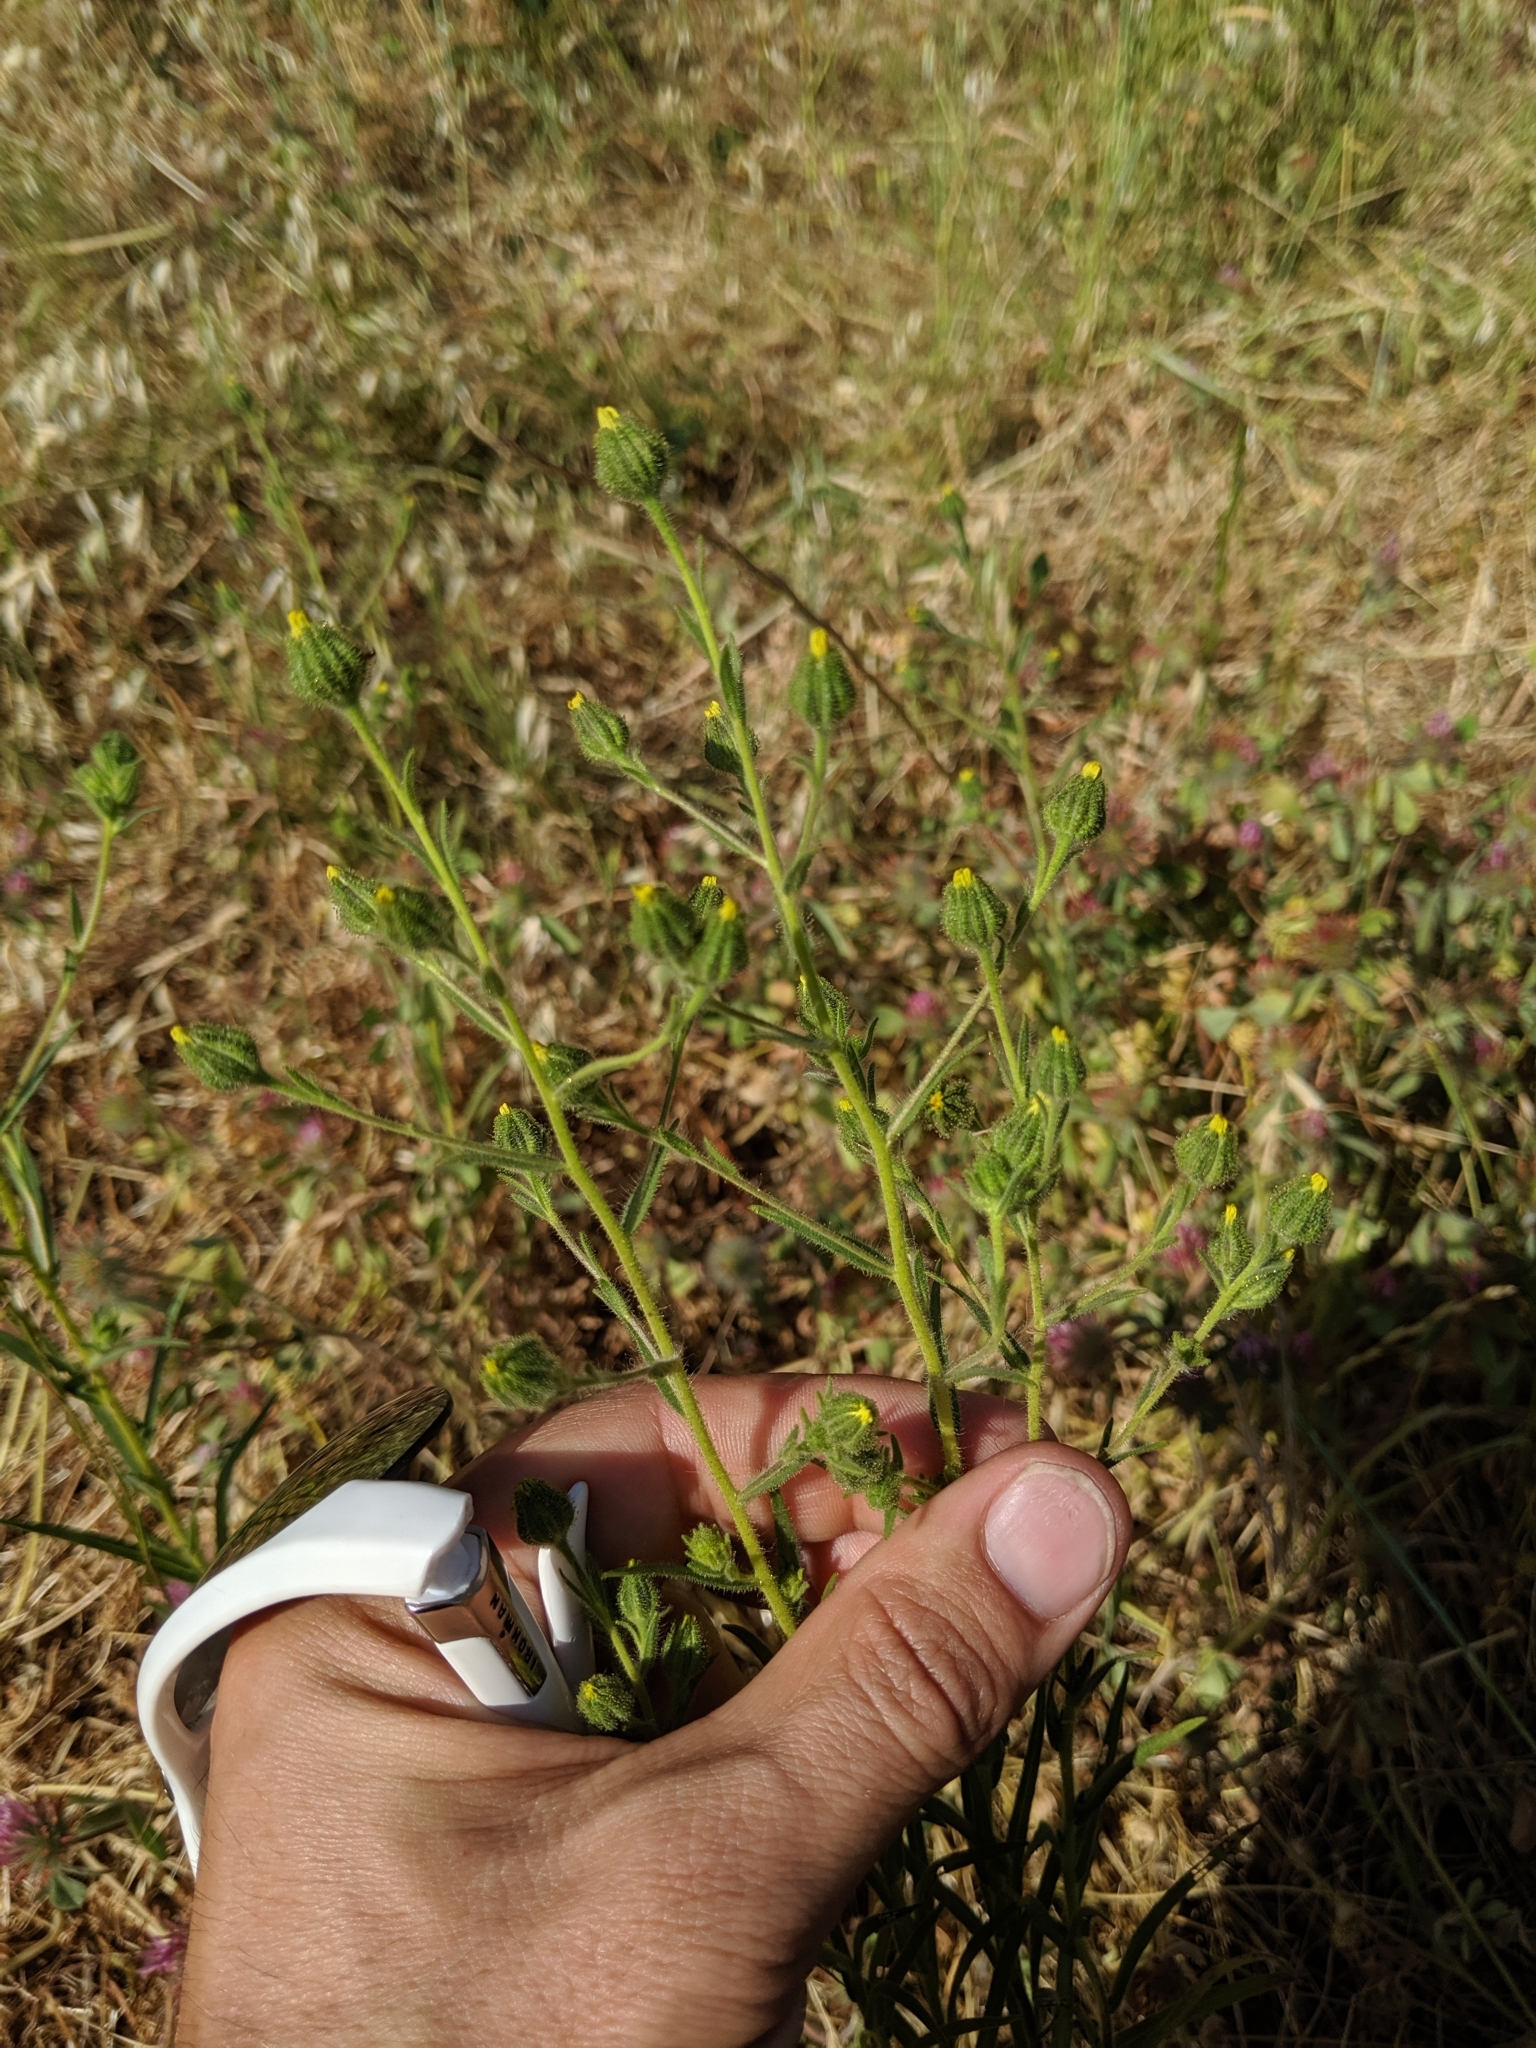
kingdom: Plantae
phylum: Tracheophyta
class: Magnoliopsida
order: Asterales
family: Asteraceae
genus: Madia
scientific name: Madia gracilis
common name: Grassy tarweed
